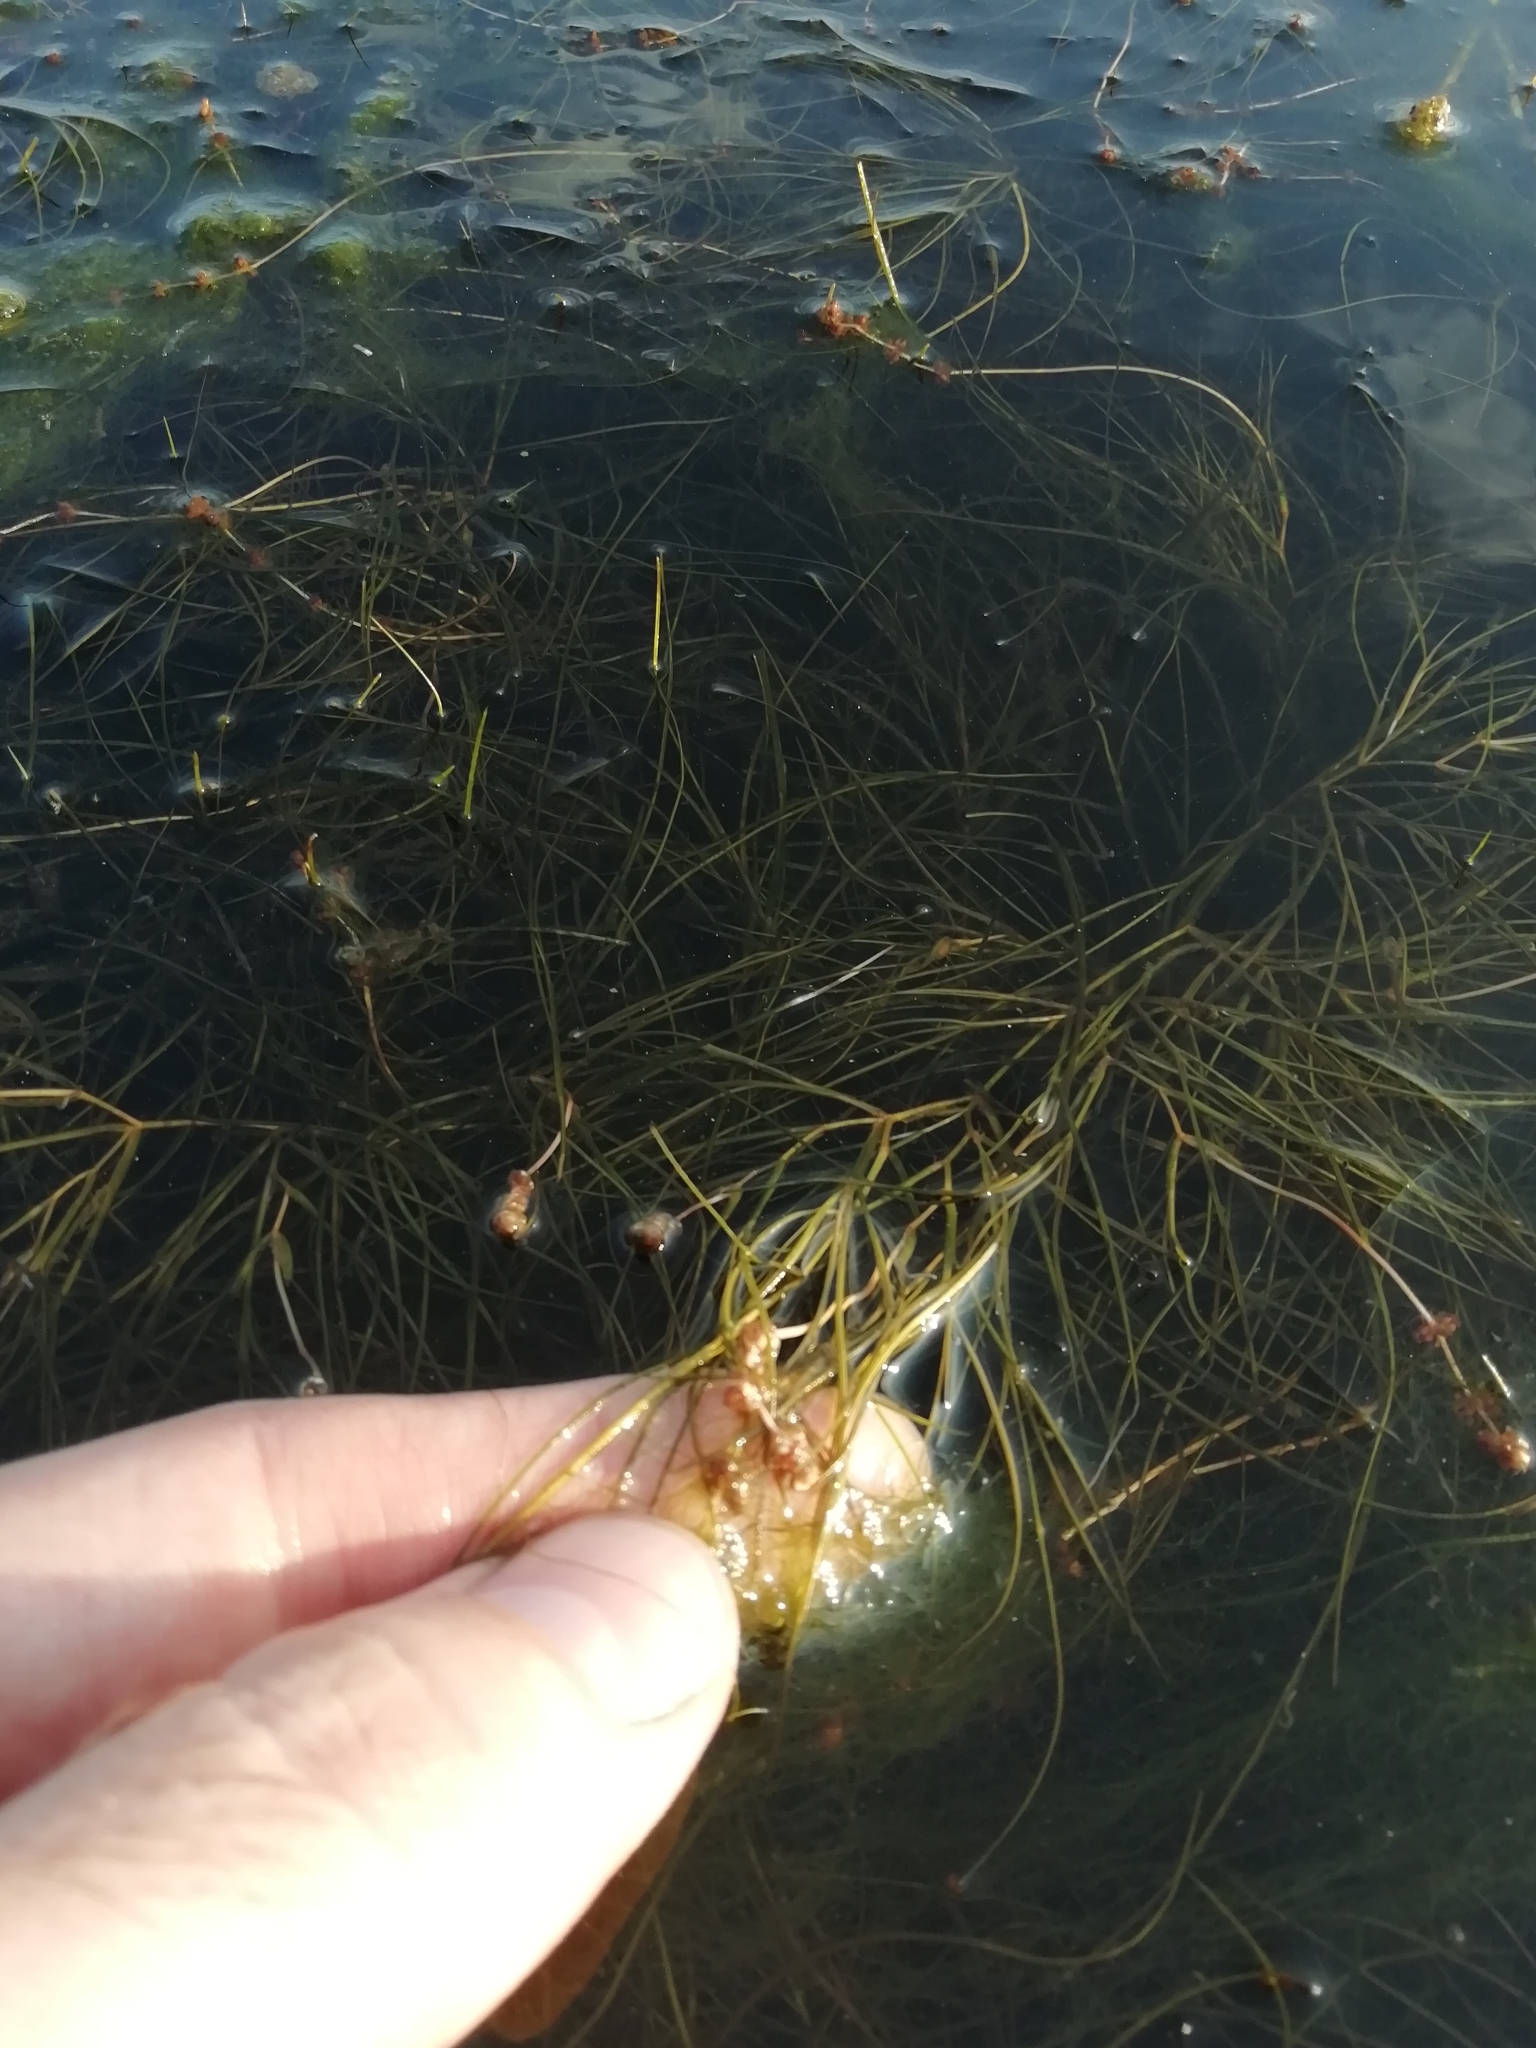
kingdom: Plantae
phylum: Tracheophyta
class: Liliopsida
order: Alismatales
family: Potamogetonaceae
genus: Stuckenia
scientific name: Stuckenia pectinata
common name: Sago pondweed
